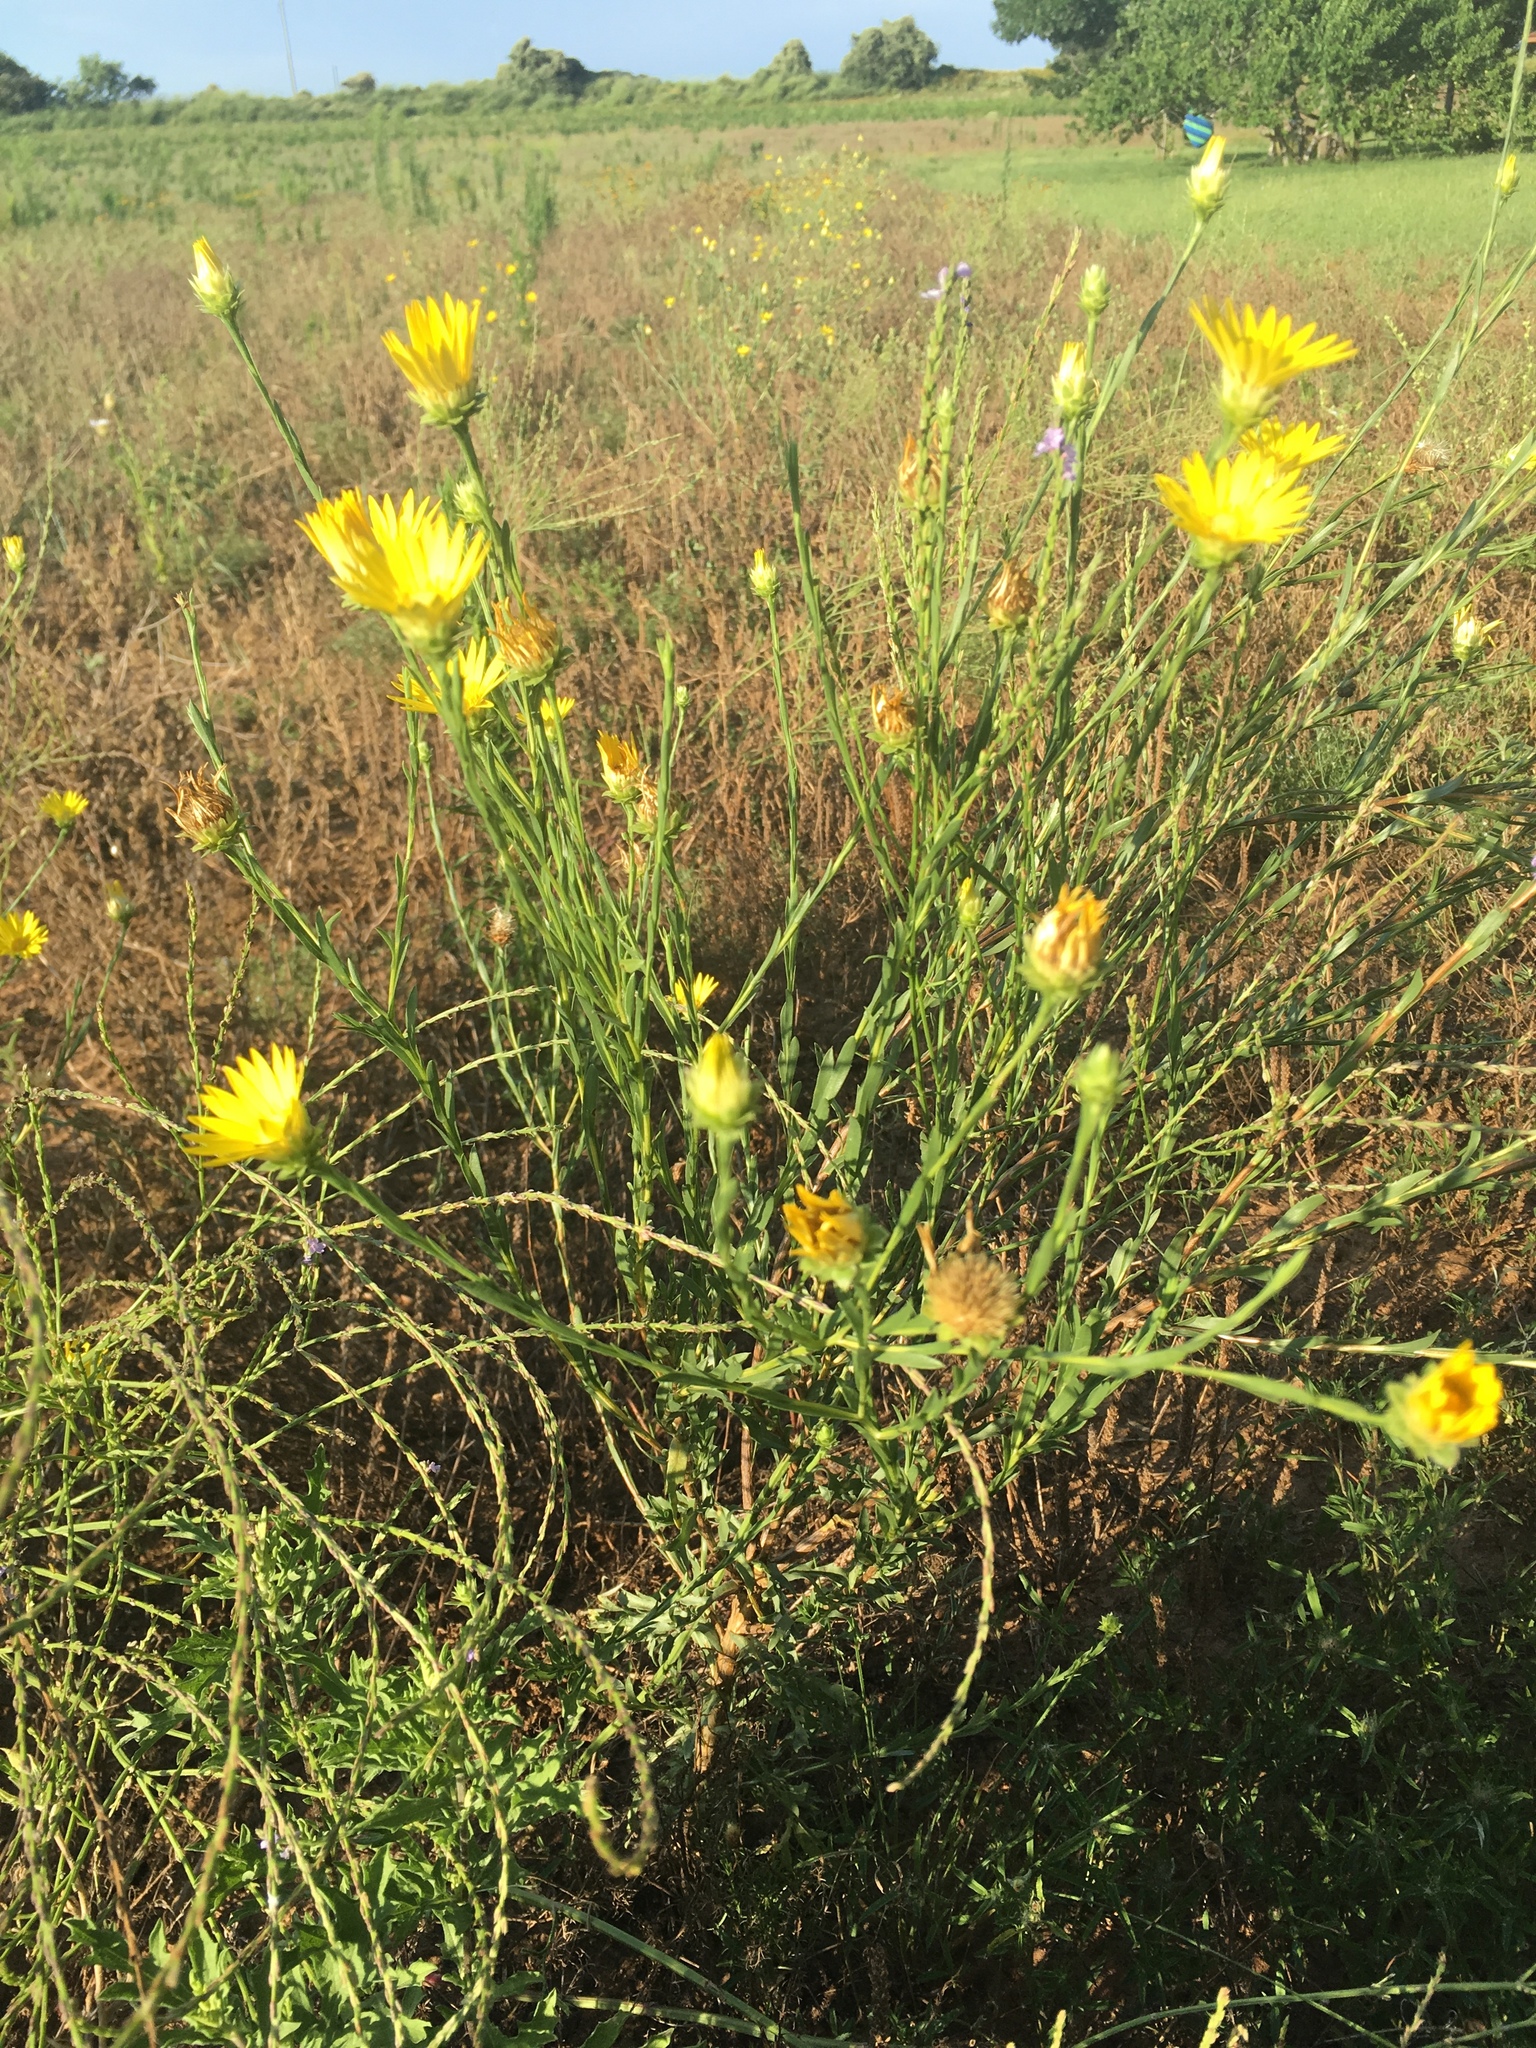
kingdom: Plantae
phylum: Tracheophyta
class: Magnoliopsida
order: Asterales
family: Asteraceae
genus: Xanthisma
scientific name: Xanthisma texanum
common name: Texas sleepy daisy
